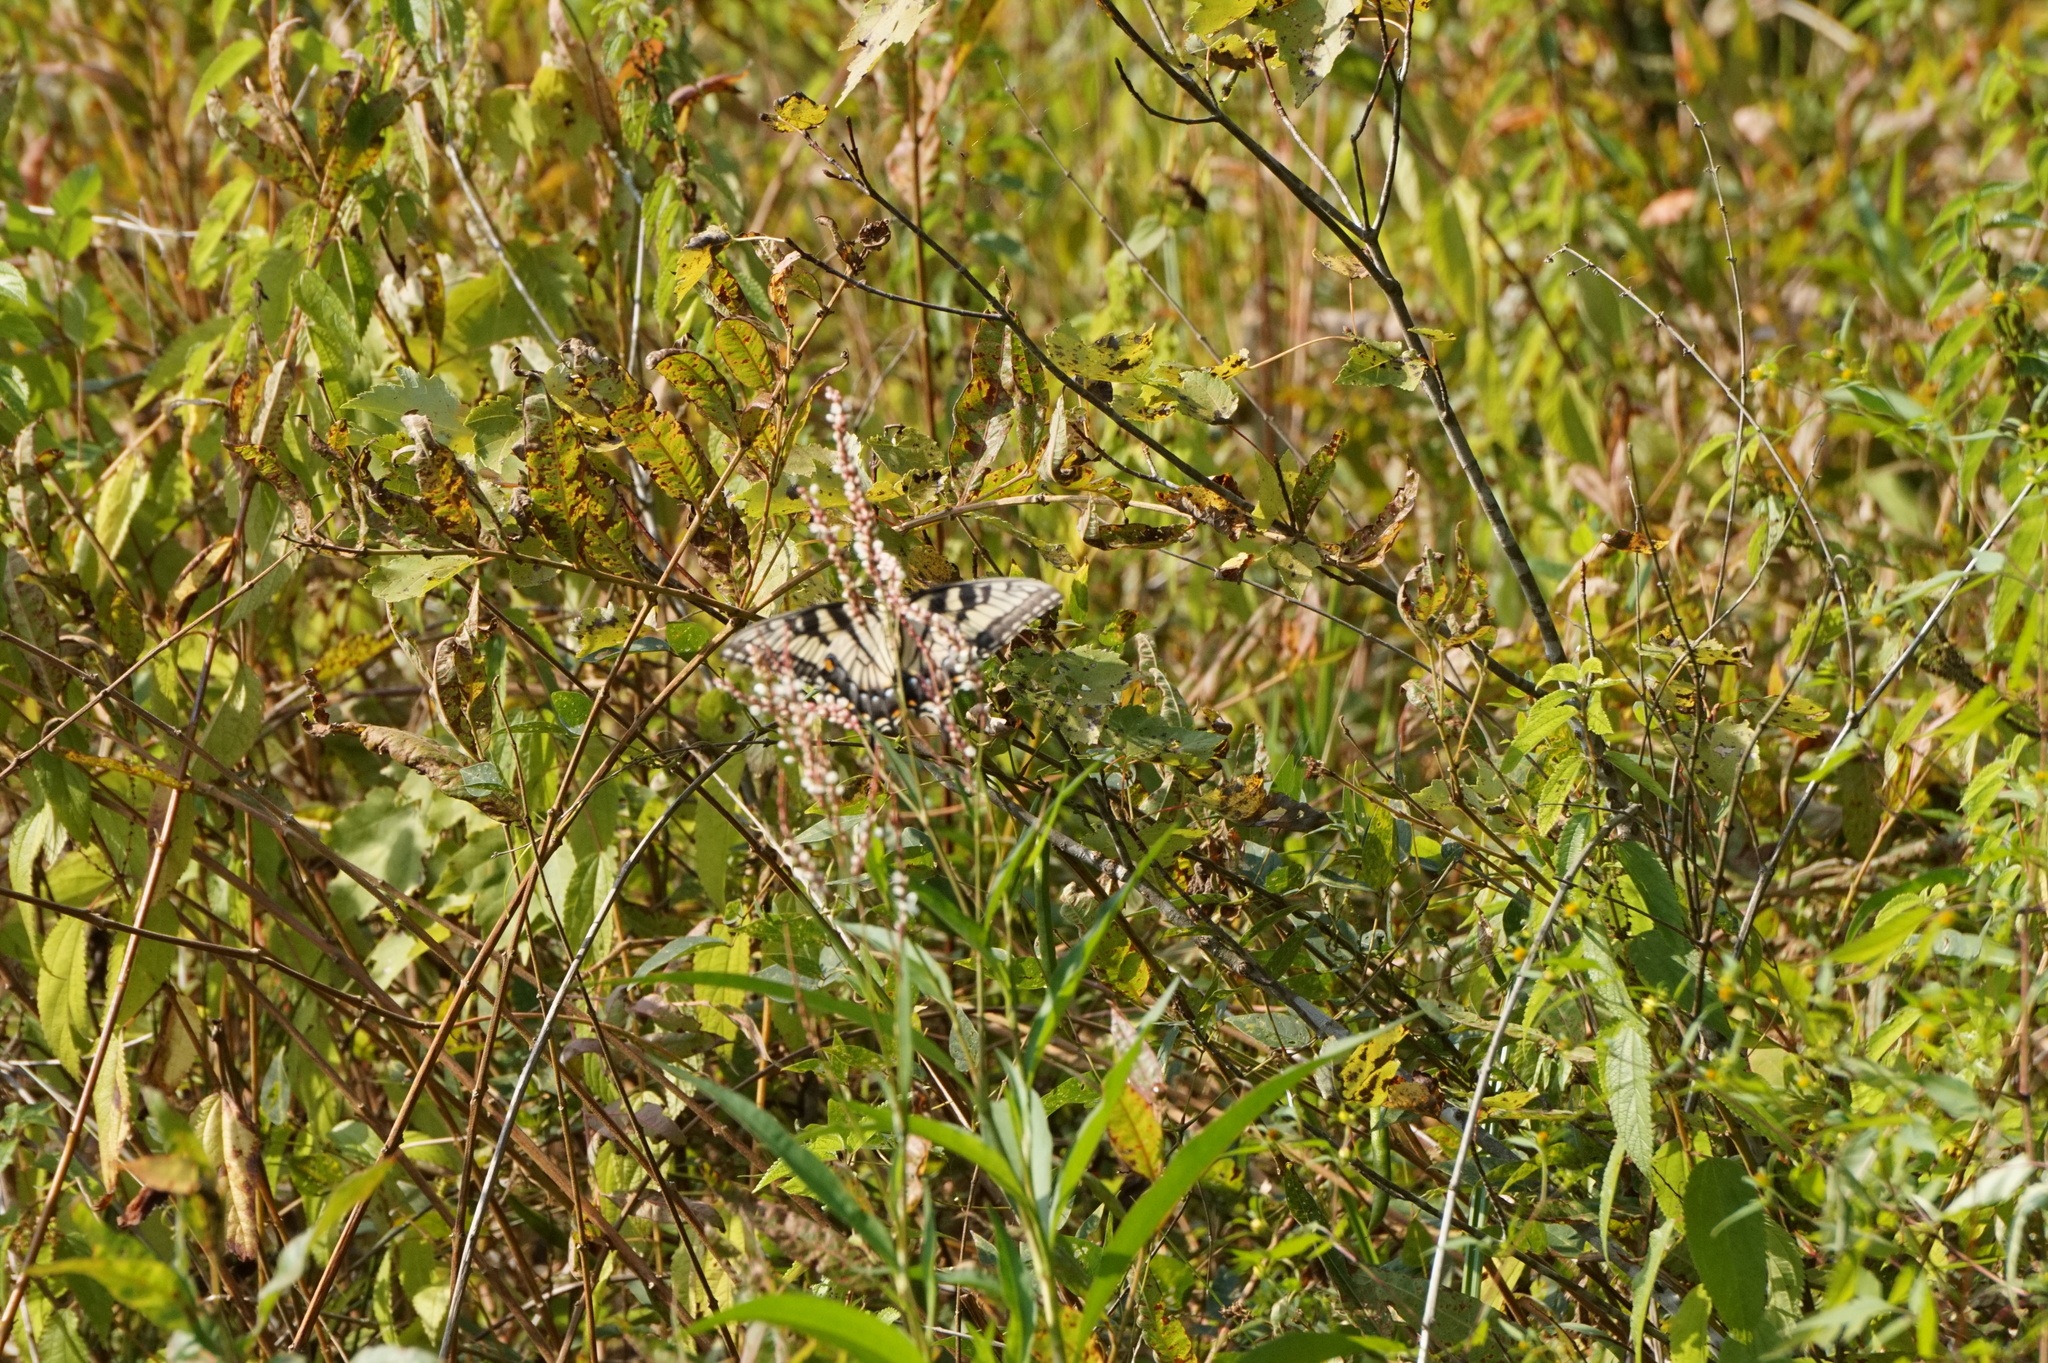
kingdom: Animalia
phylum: Arthropoda
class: Insecta
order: Lepidoptera
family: Papilionidae
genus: Papilio
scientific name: Papilio glaucus
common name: Tiger swallowtail
